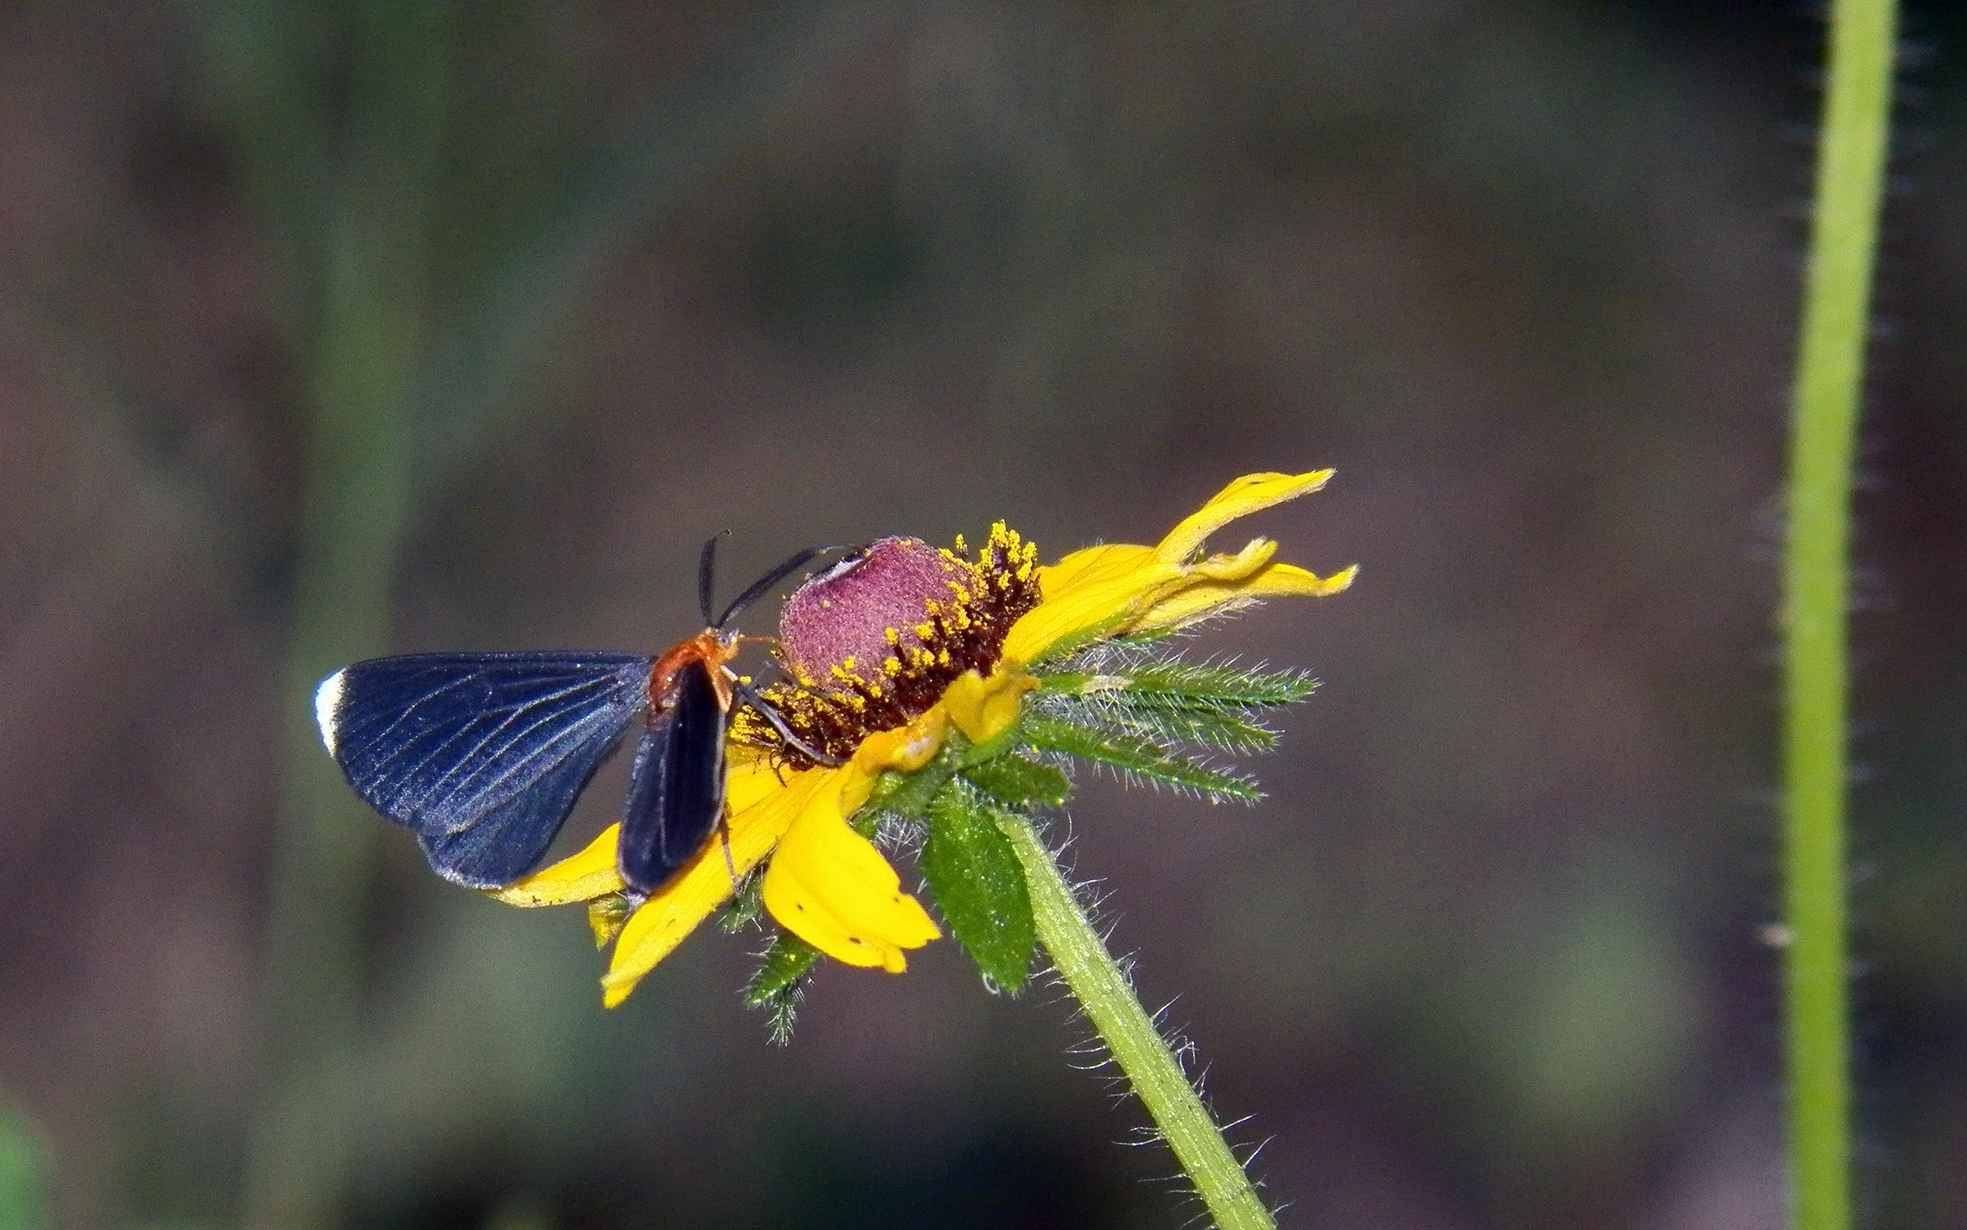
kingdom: Animalia
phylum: Arthropoda
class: Insecta
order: Lepidoptera
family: Geometridae
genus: Melanchroia
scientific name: Melanchroia chephise
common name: White-tipped black
